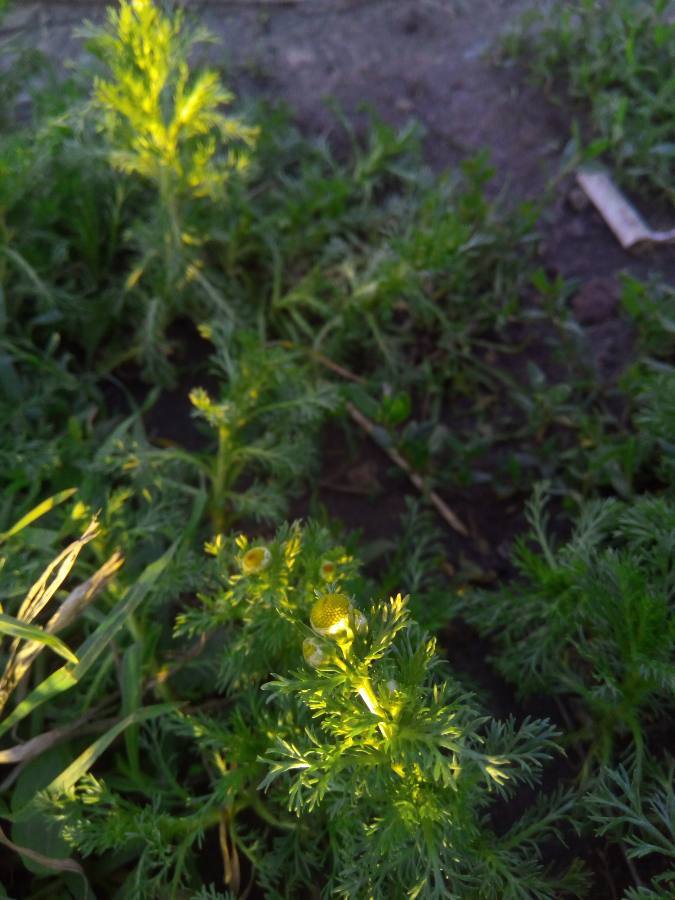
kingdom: Plantae
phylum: Tracheophyta
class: Magnoliopsida
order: Asterales
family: Asteraceae
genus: Matricaria
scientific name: Matricaria discoidea
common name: Disc mayweed
